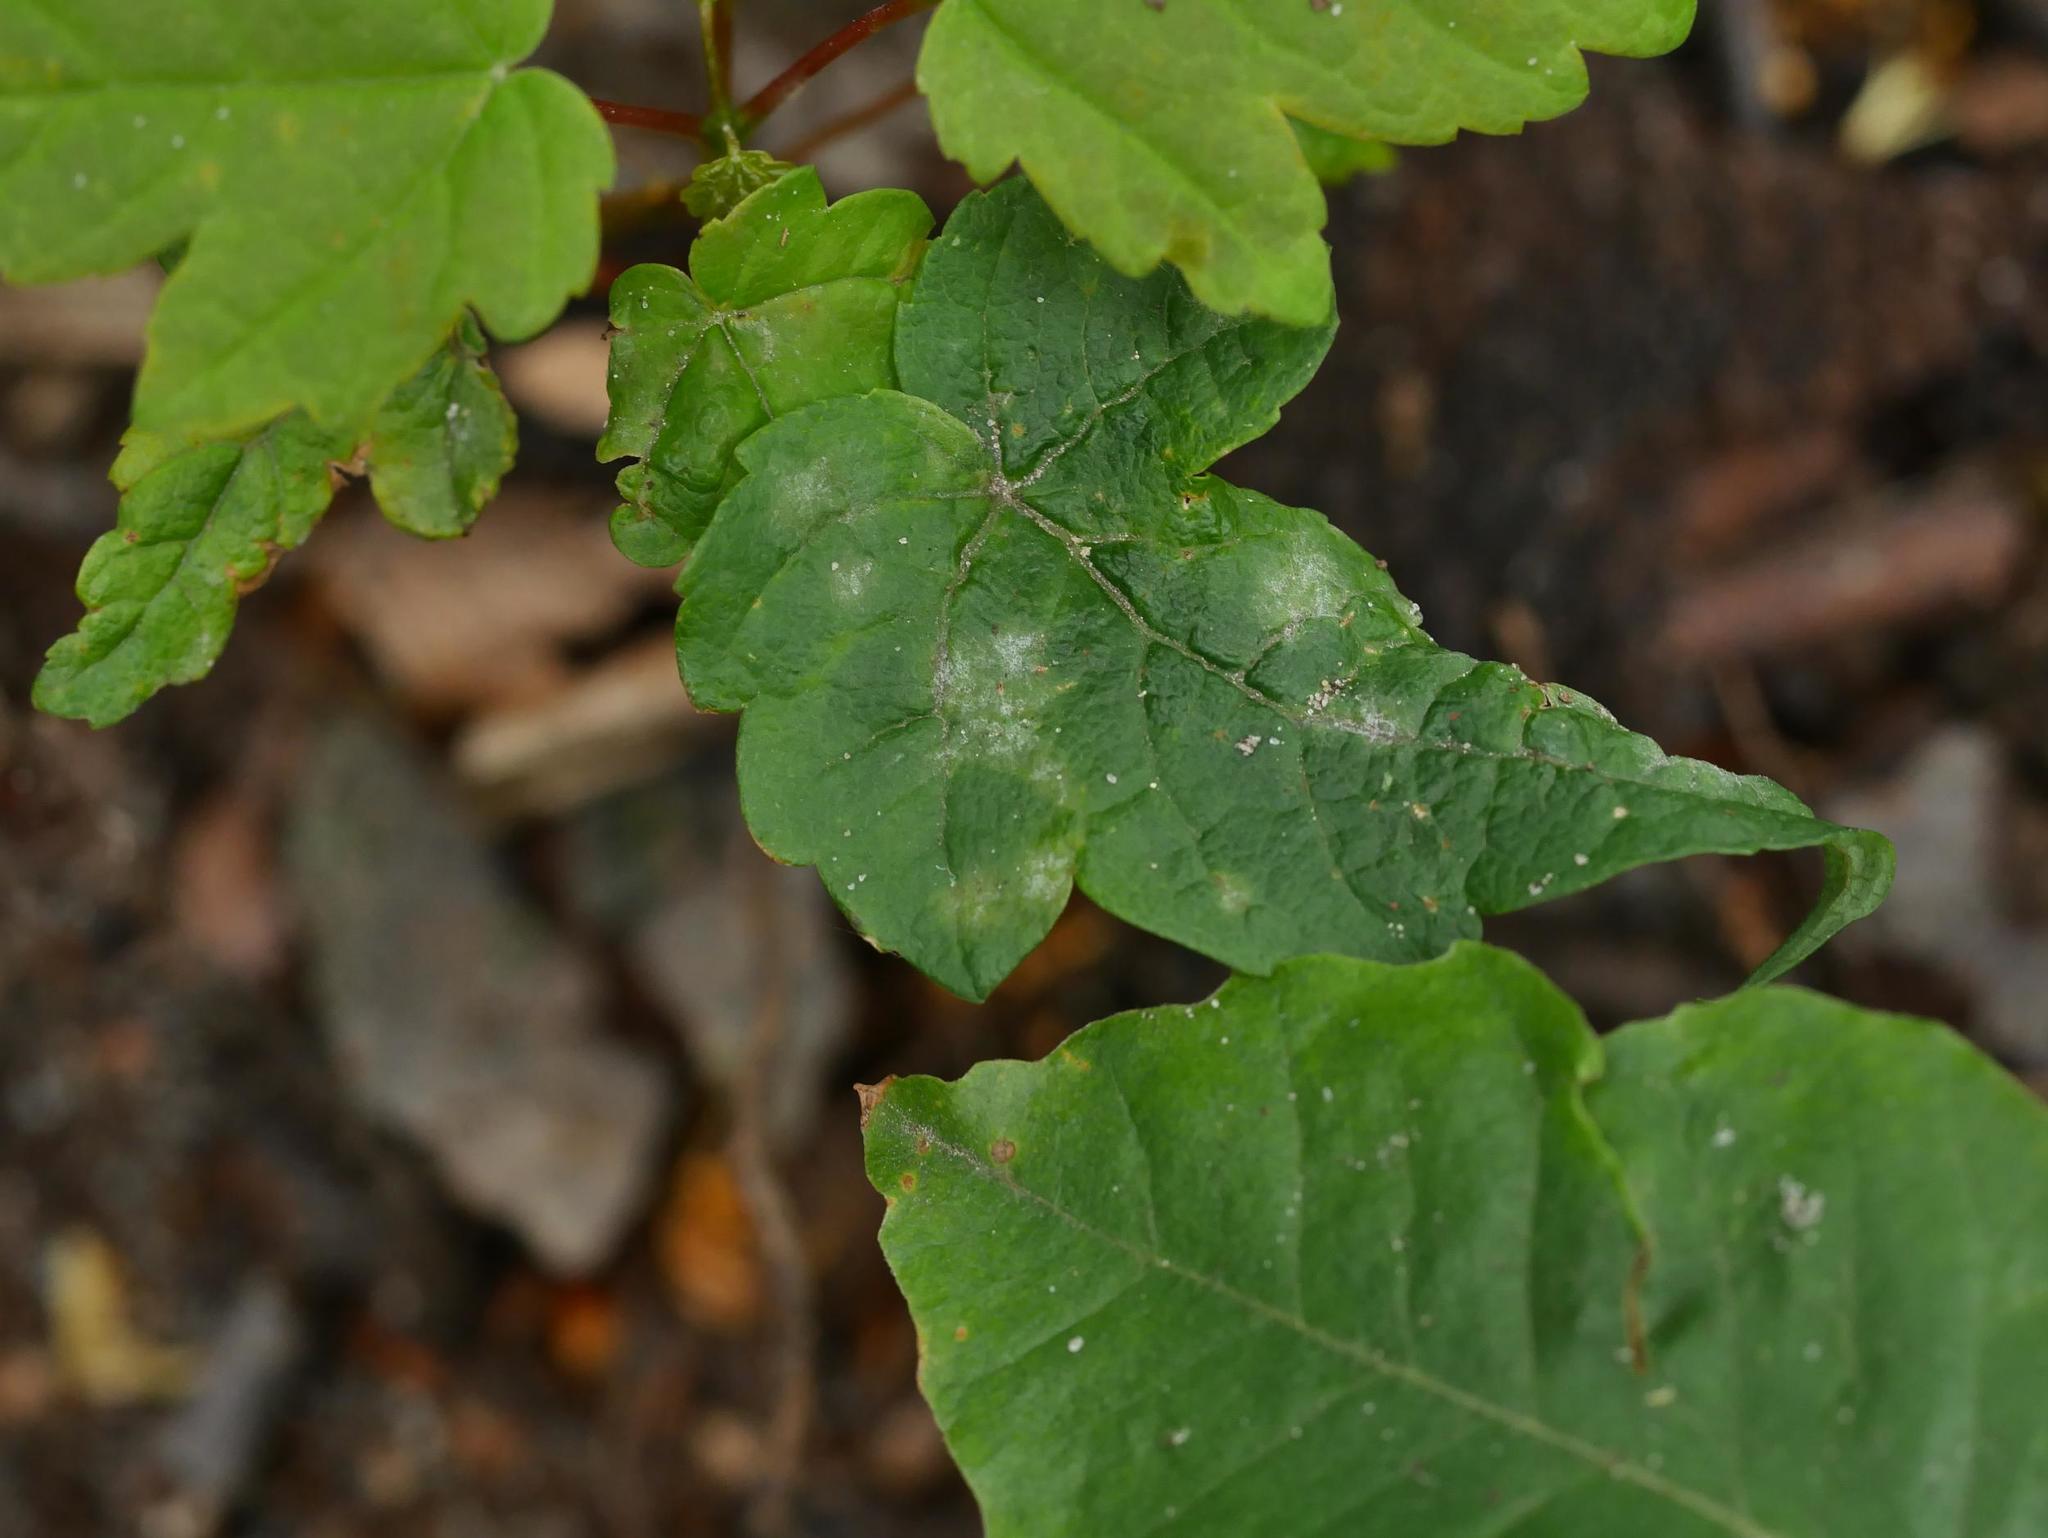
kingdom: Fungi
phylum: Ascomycota
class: Leotiomycetes
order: Helotiales
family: Erysiphaceae
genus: Sawadaea
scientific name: Sawadaea bicornis
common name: Maple mildew
